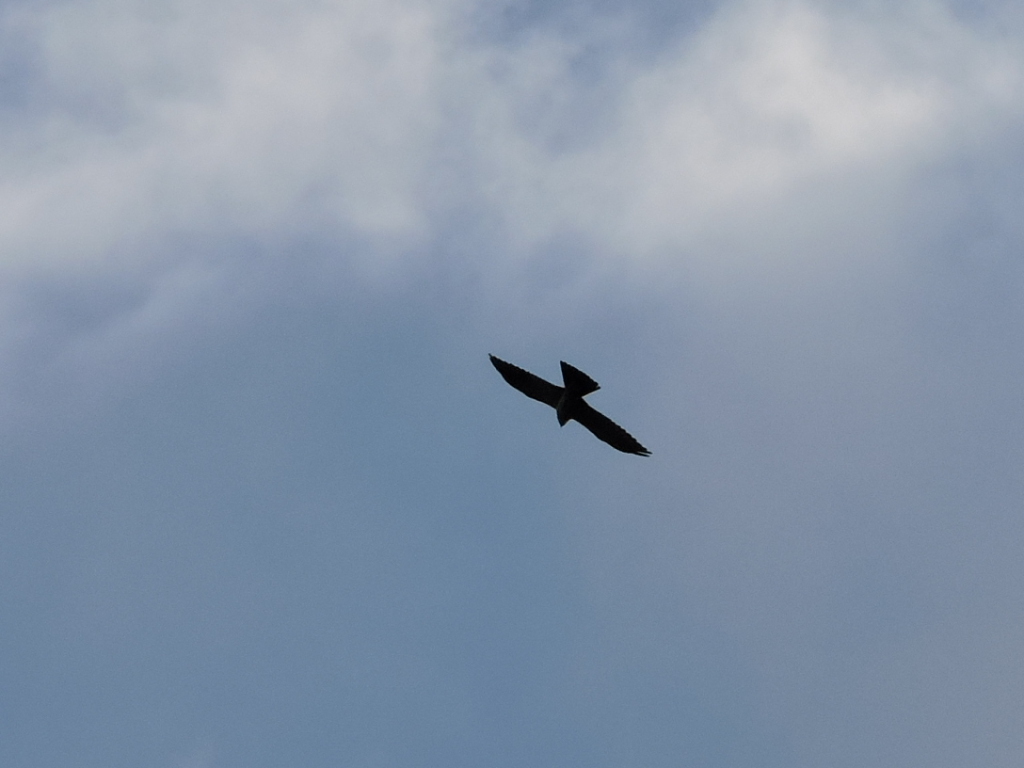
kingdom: Animalia
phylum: Chordata
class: Aves
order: Accipitriformes
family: Accipitridae
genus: Ictinia
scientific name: Ictinia mississippiensis
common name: Mississippi kite
